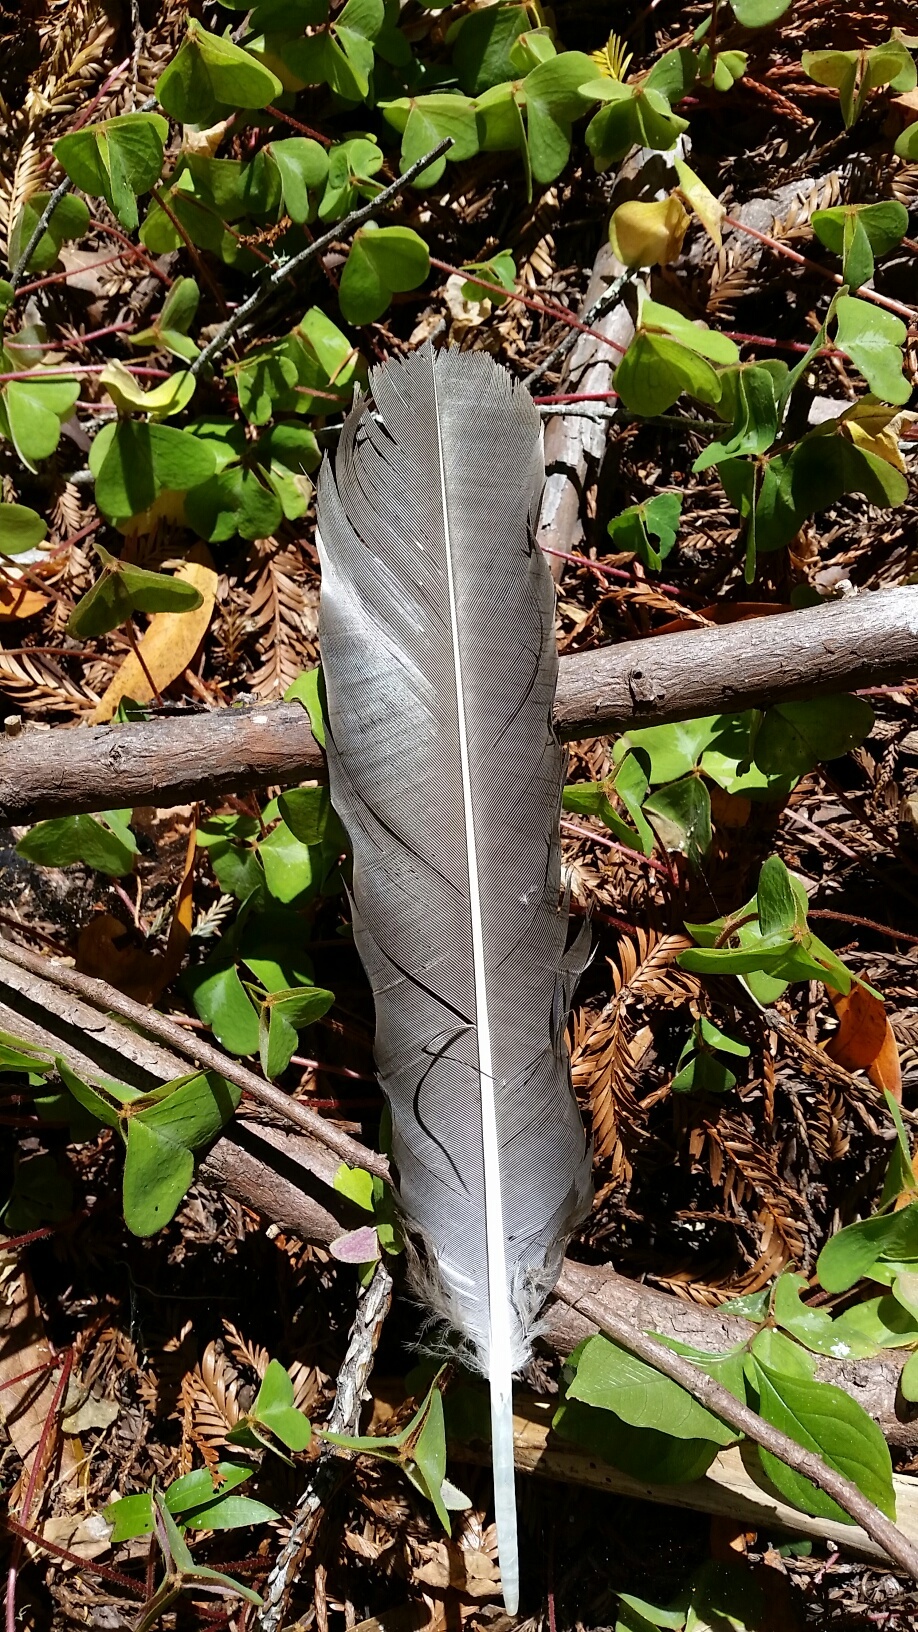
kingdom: Animalia
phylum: Chordata
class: Aves
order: Accipitriformes
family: Cathartidae
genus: Cathartes
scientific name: Cathartes aura
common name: Turkey vulture
